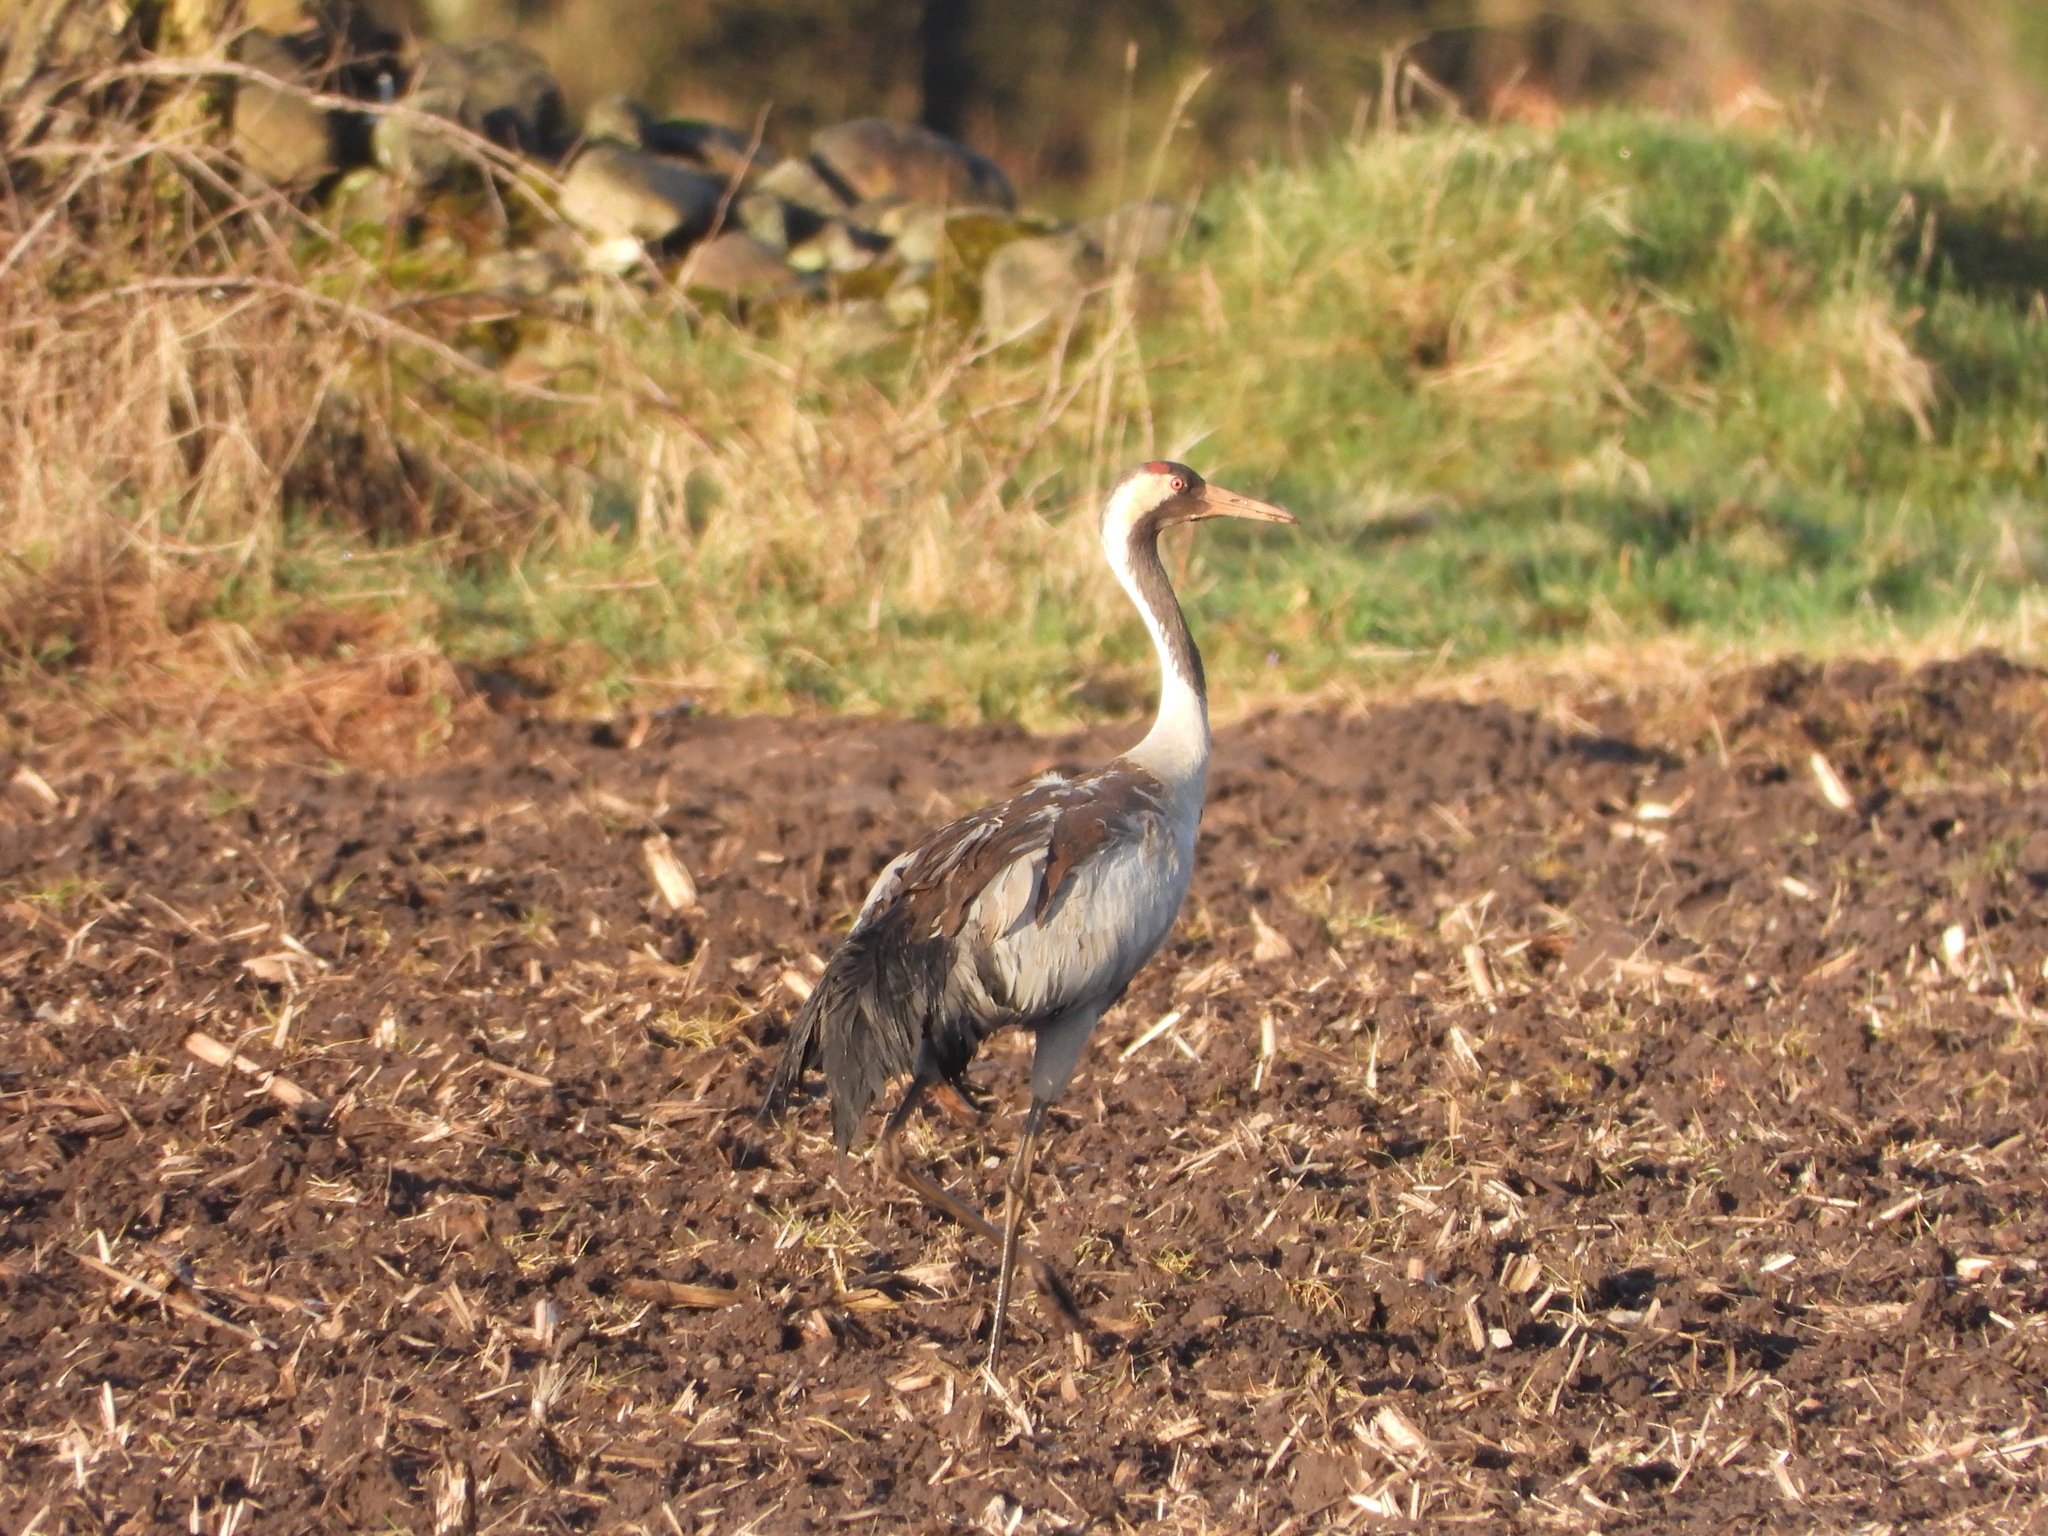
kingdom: Animalia
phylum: Chordata
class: Aves
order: Gruiformes
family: Gruidae
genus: Grus
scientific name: Grus grus
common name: Common crane
